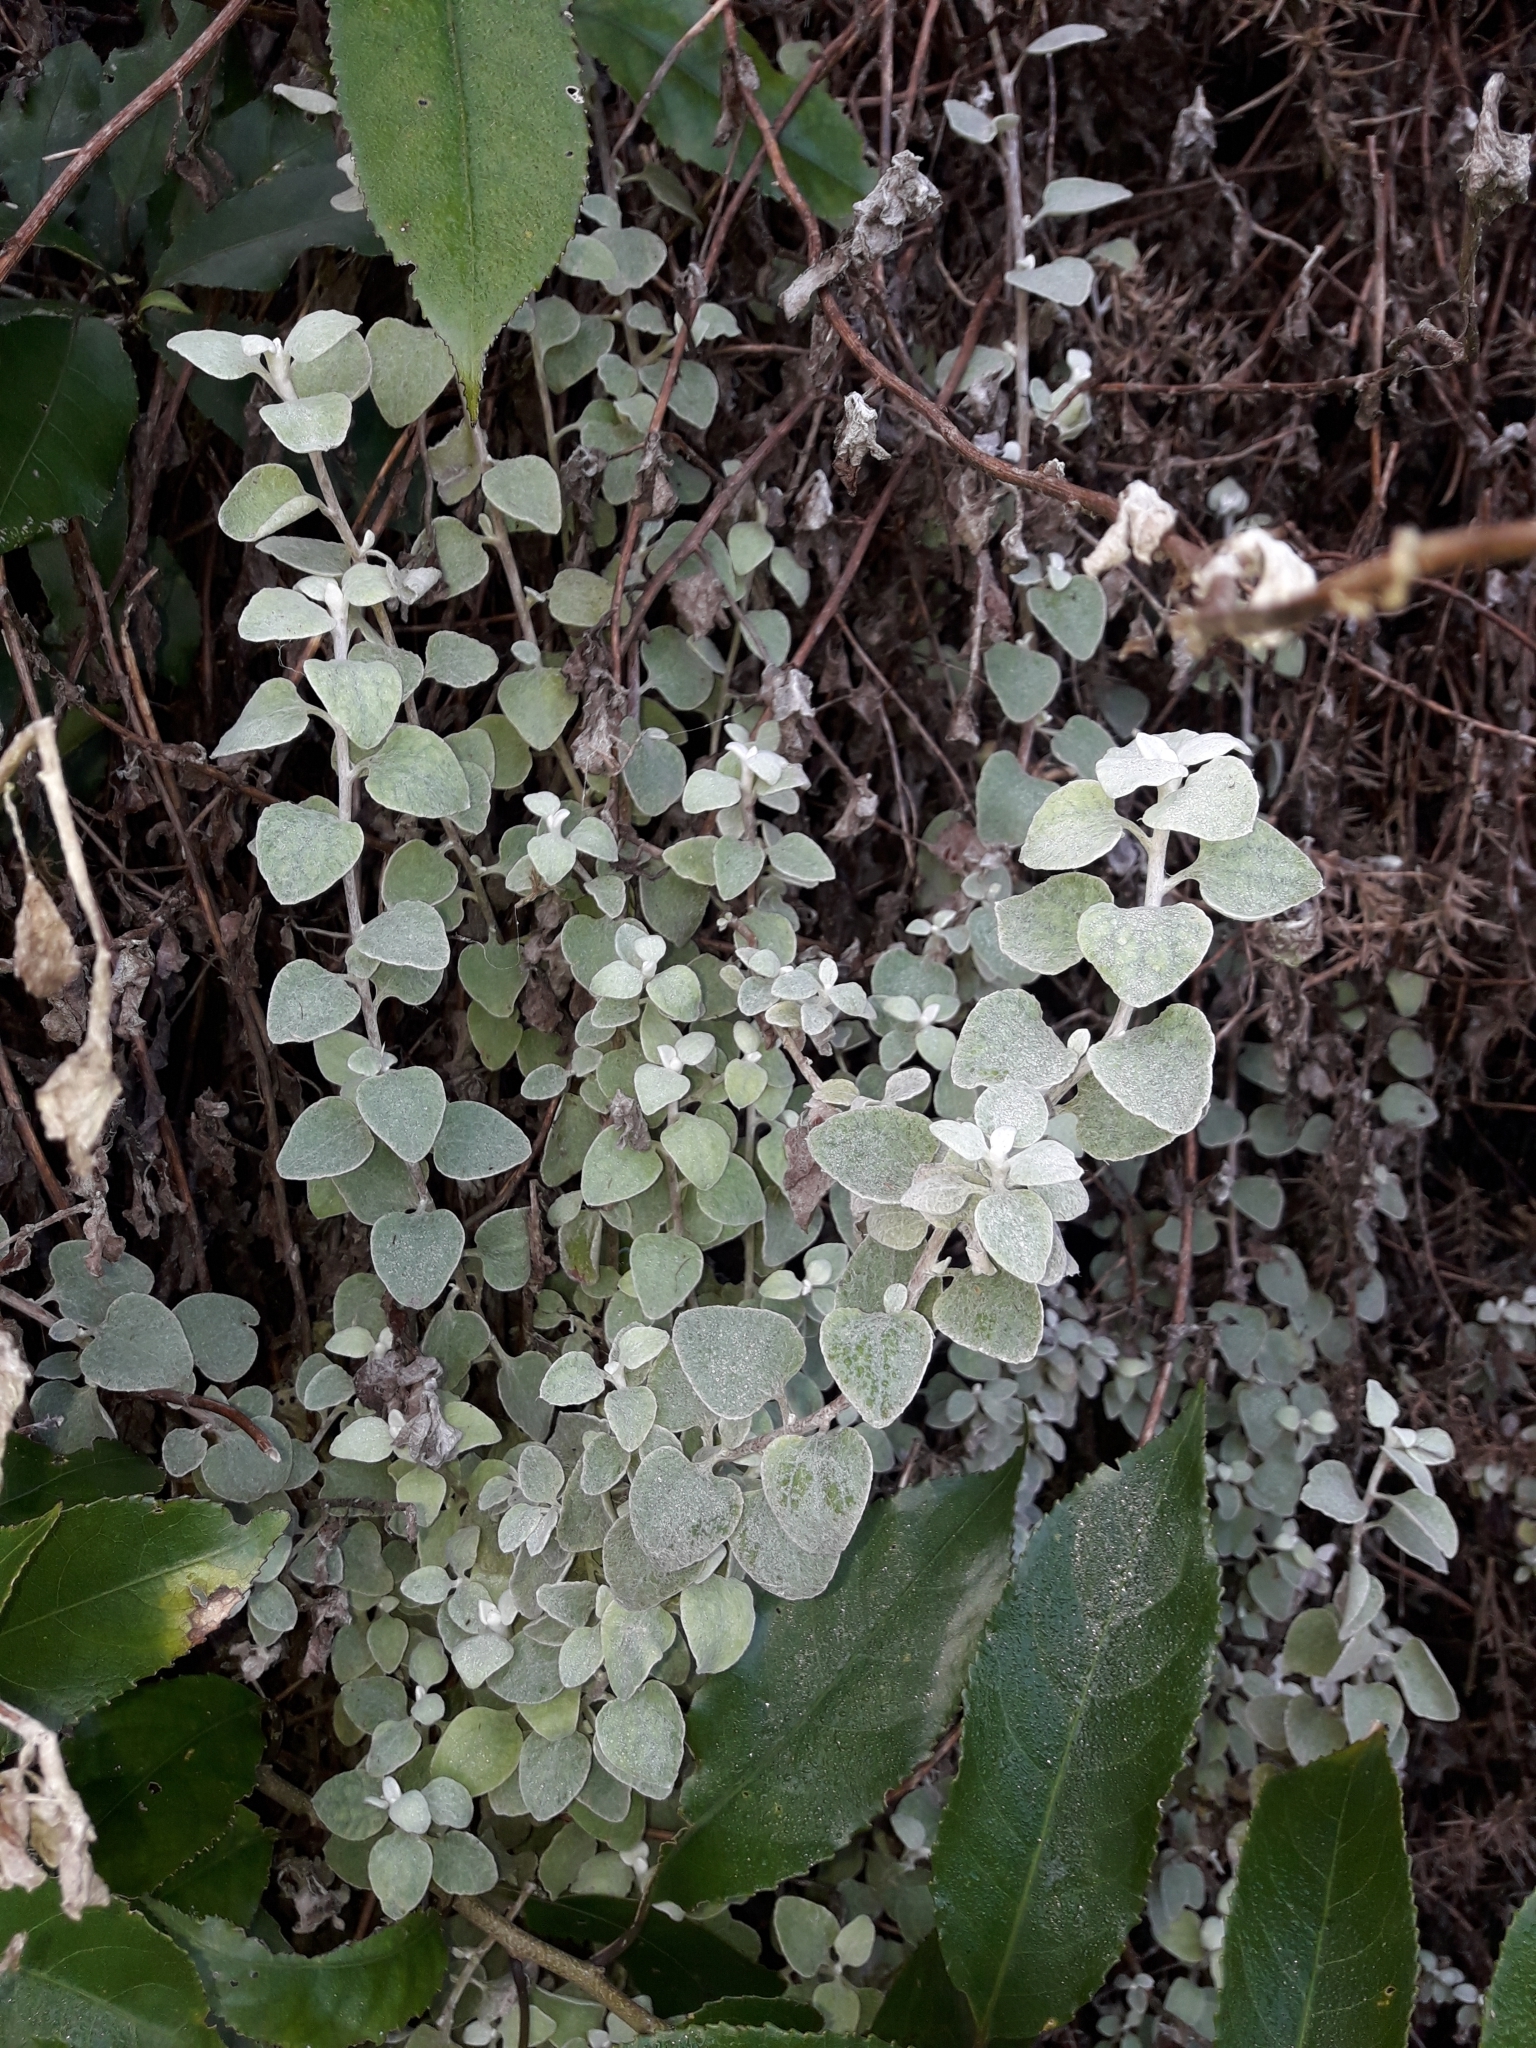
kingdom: Plantae
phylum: Tracheophyta
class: Magnoliopsida
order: Asterales
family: Asteraceae
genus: Helichrysum
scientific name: Helichrysum petiolare
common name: Licorice-plant
